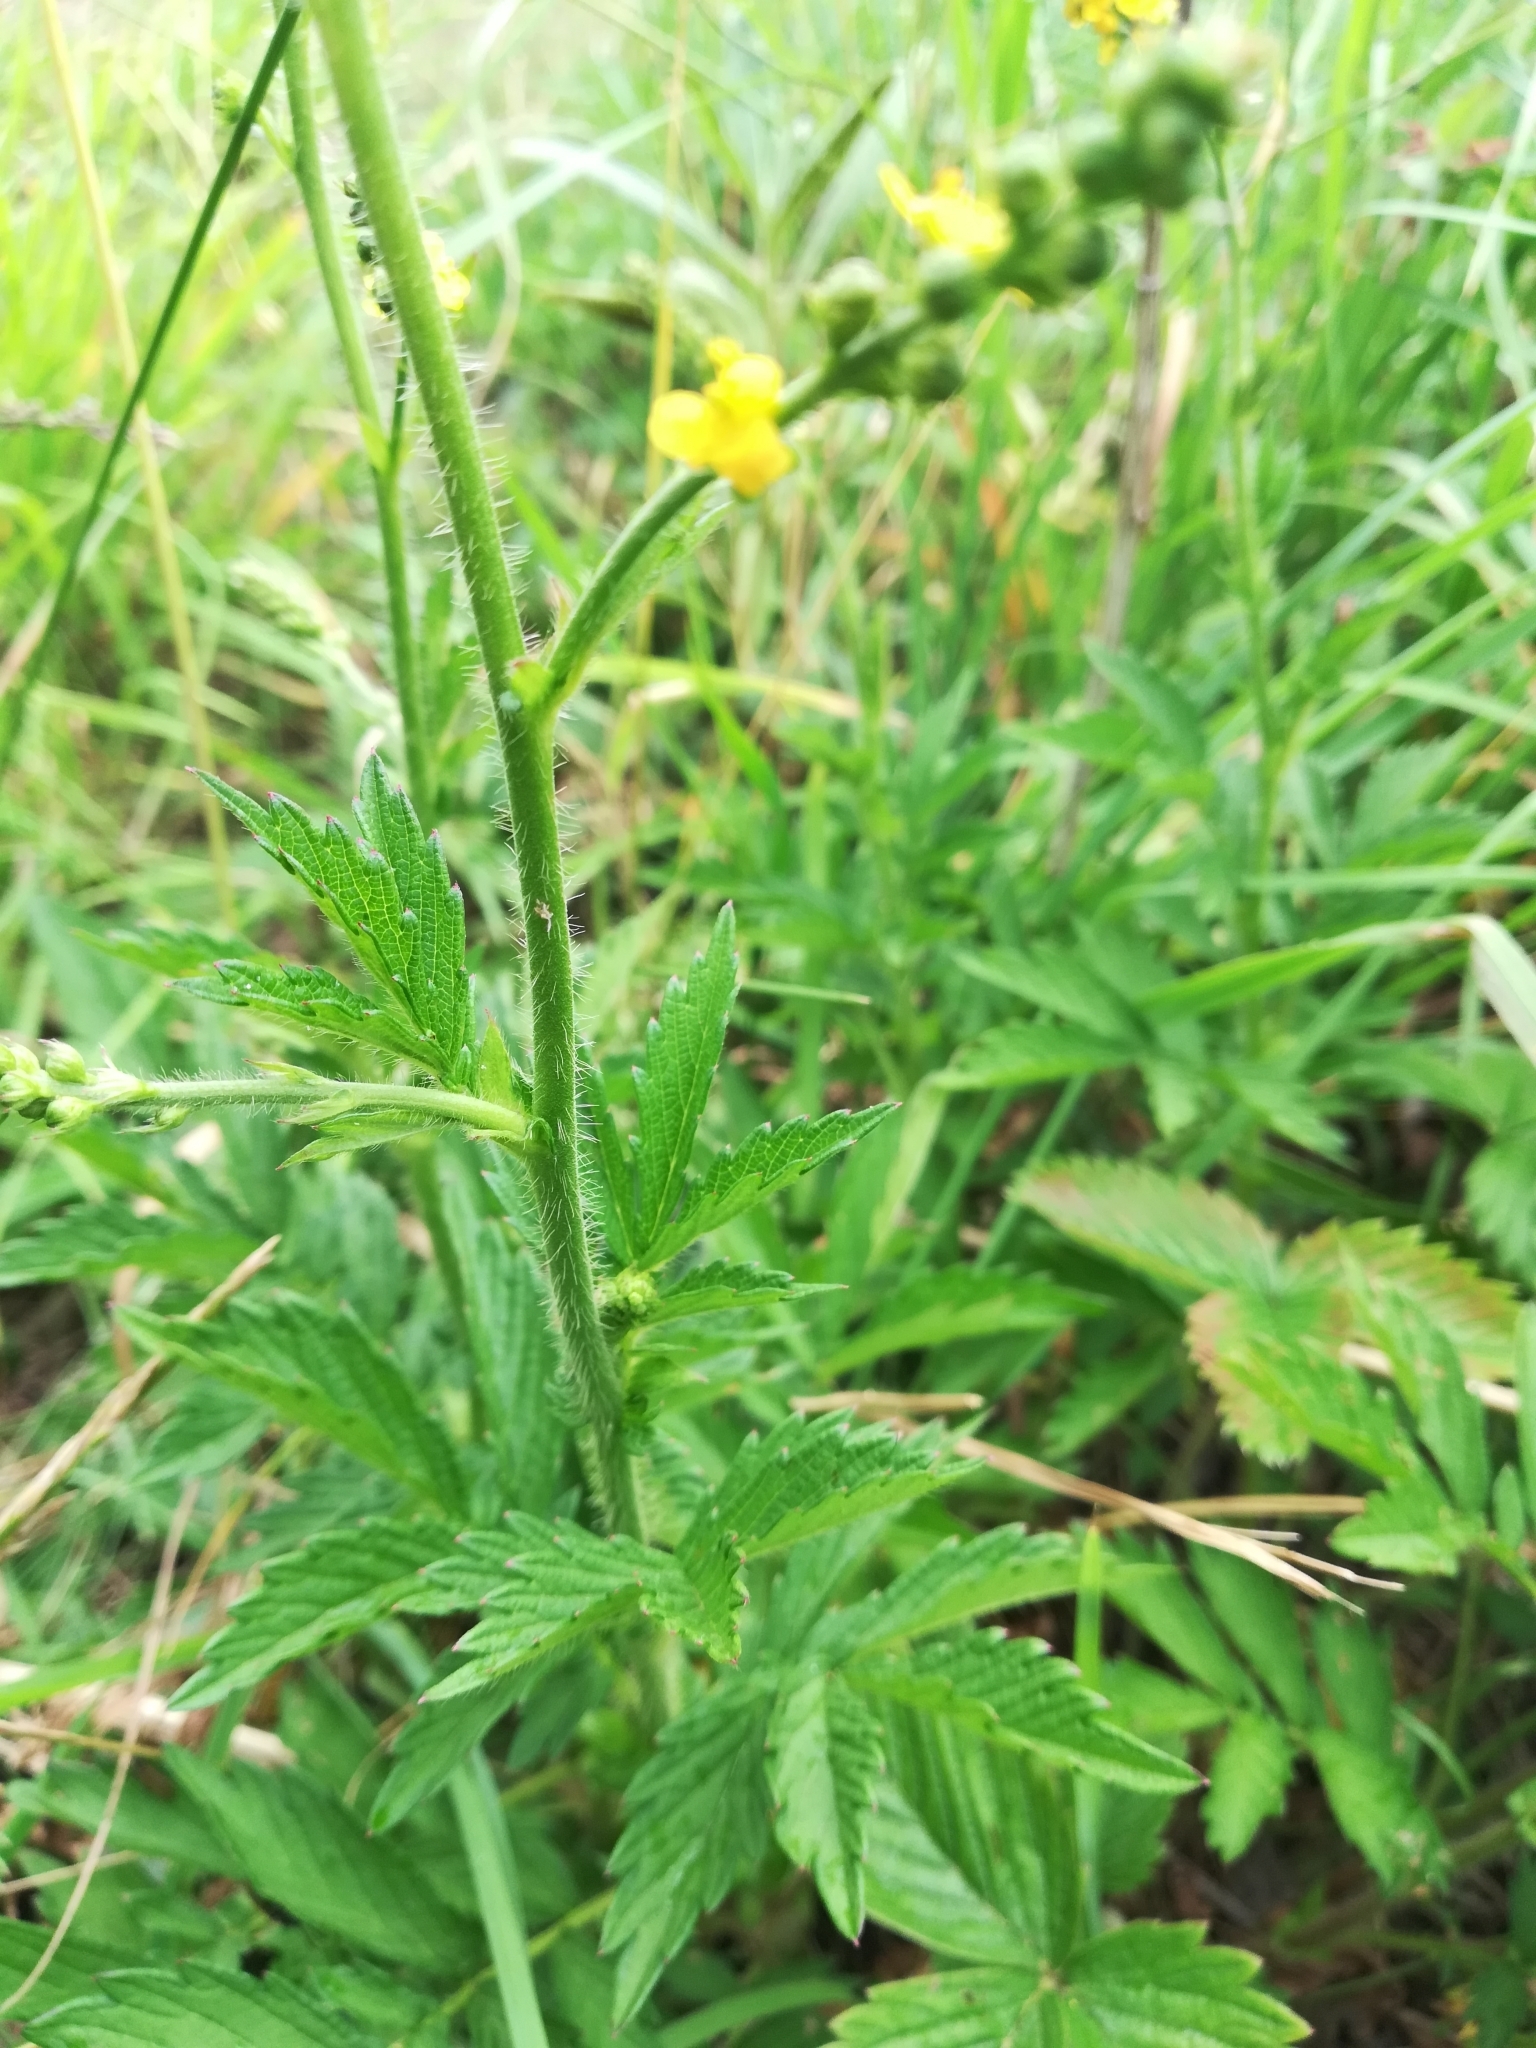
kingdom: Plantae
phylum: Tracheophyta
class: Magnoliopsida
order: Rosales
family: Rosaceae
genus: Agrimonia
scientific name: Agrimonia eupatoria
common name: Agrimony
